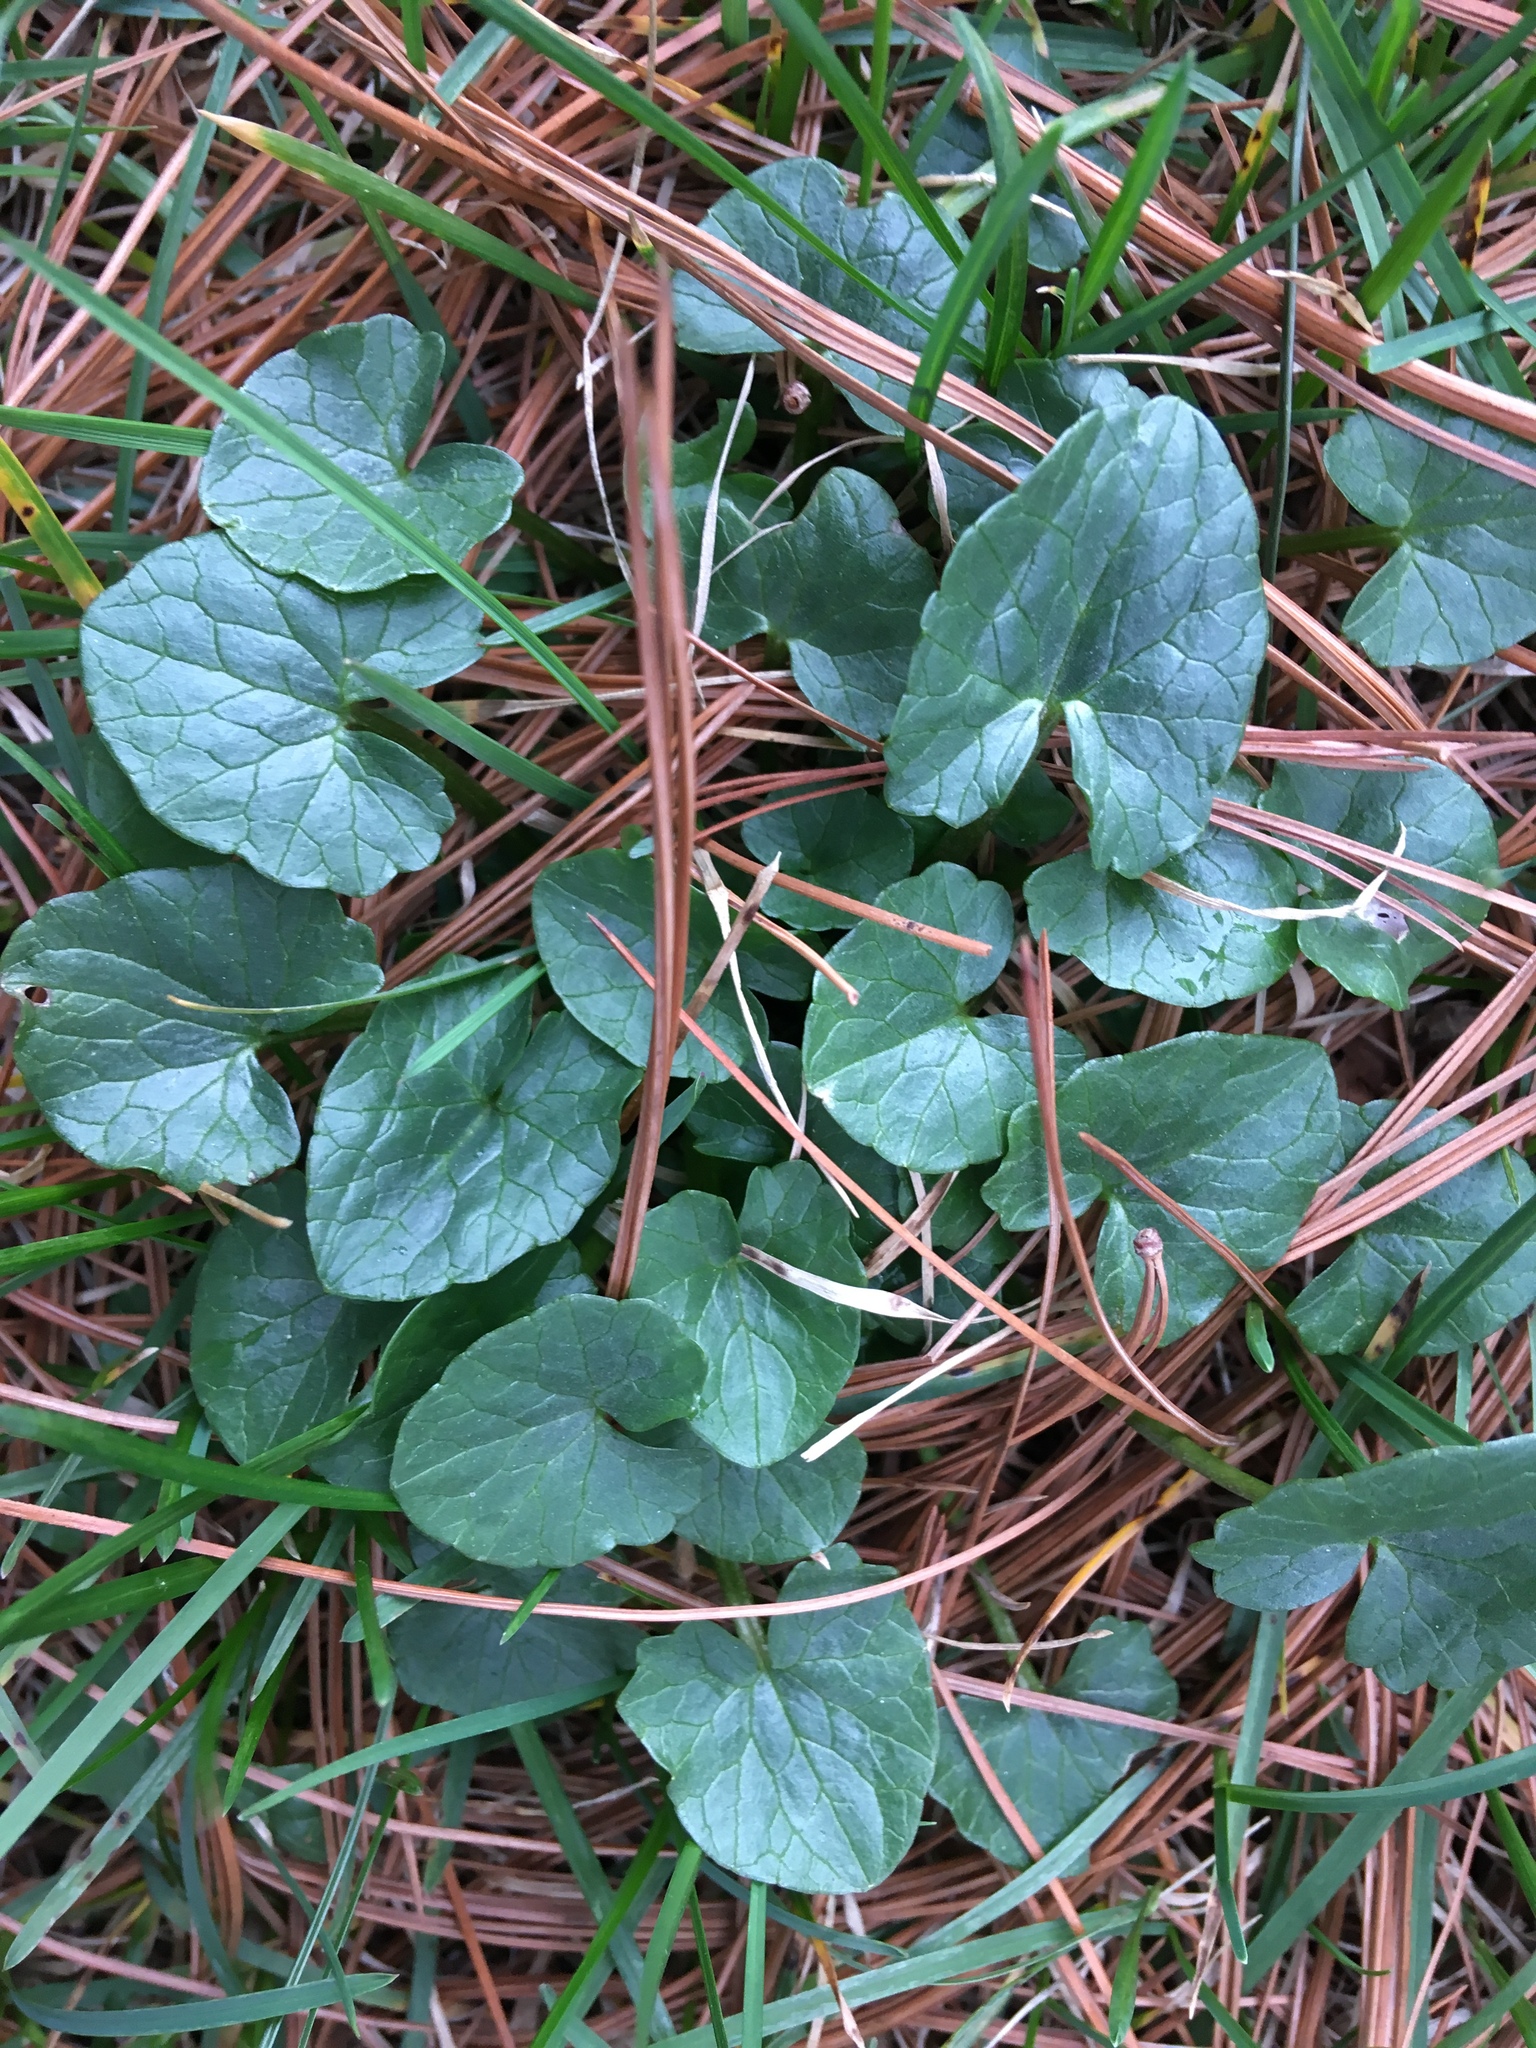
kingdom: Plantae
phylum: Tracheophyta
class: Magnoliopsida
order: Ranunculales
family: Ranunculaceae
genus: Ficaria
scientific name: Ficaria verna
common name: Lesser celandine
